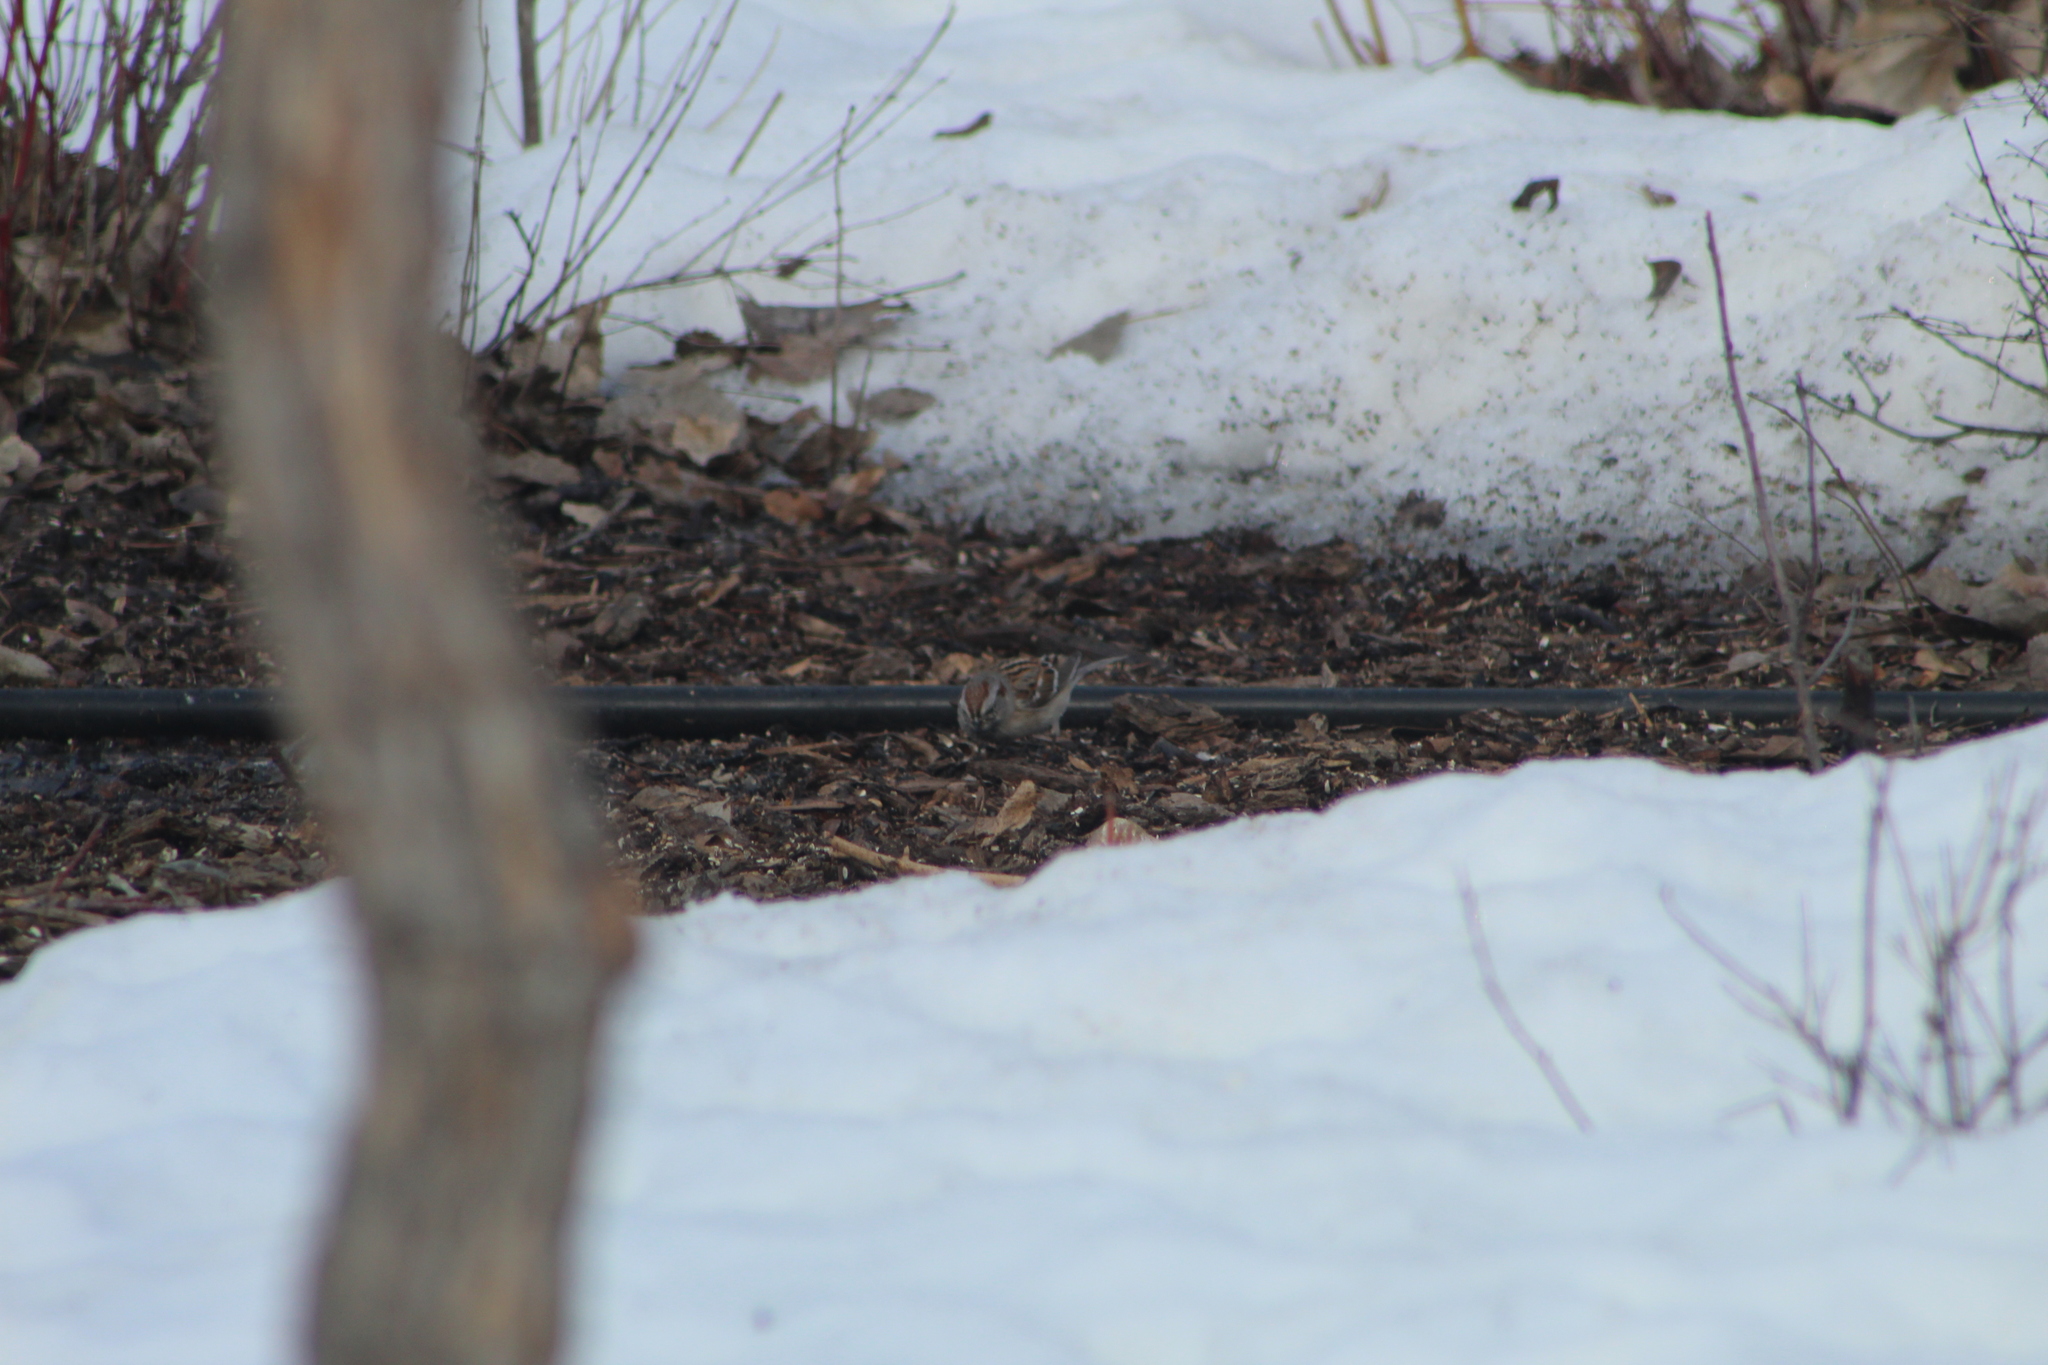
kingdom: Animalia
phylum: Chordata
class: Aves
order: Passeriformes
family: Passerellidae
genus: Spizelloides
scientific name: Spizelloides arborea
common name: American tree sparrow
